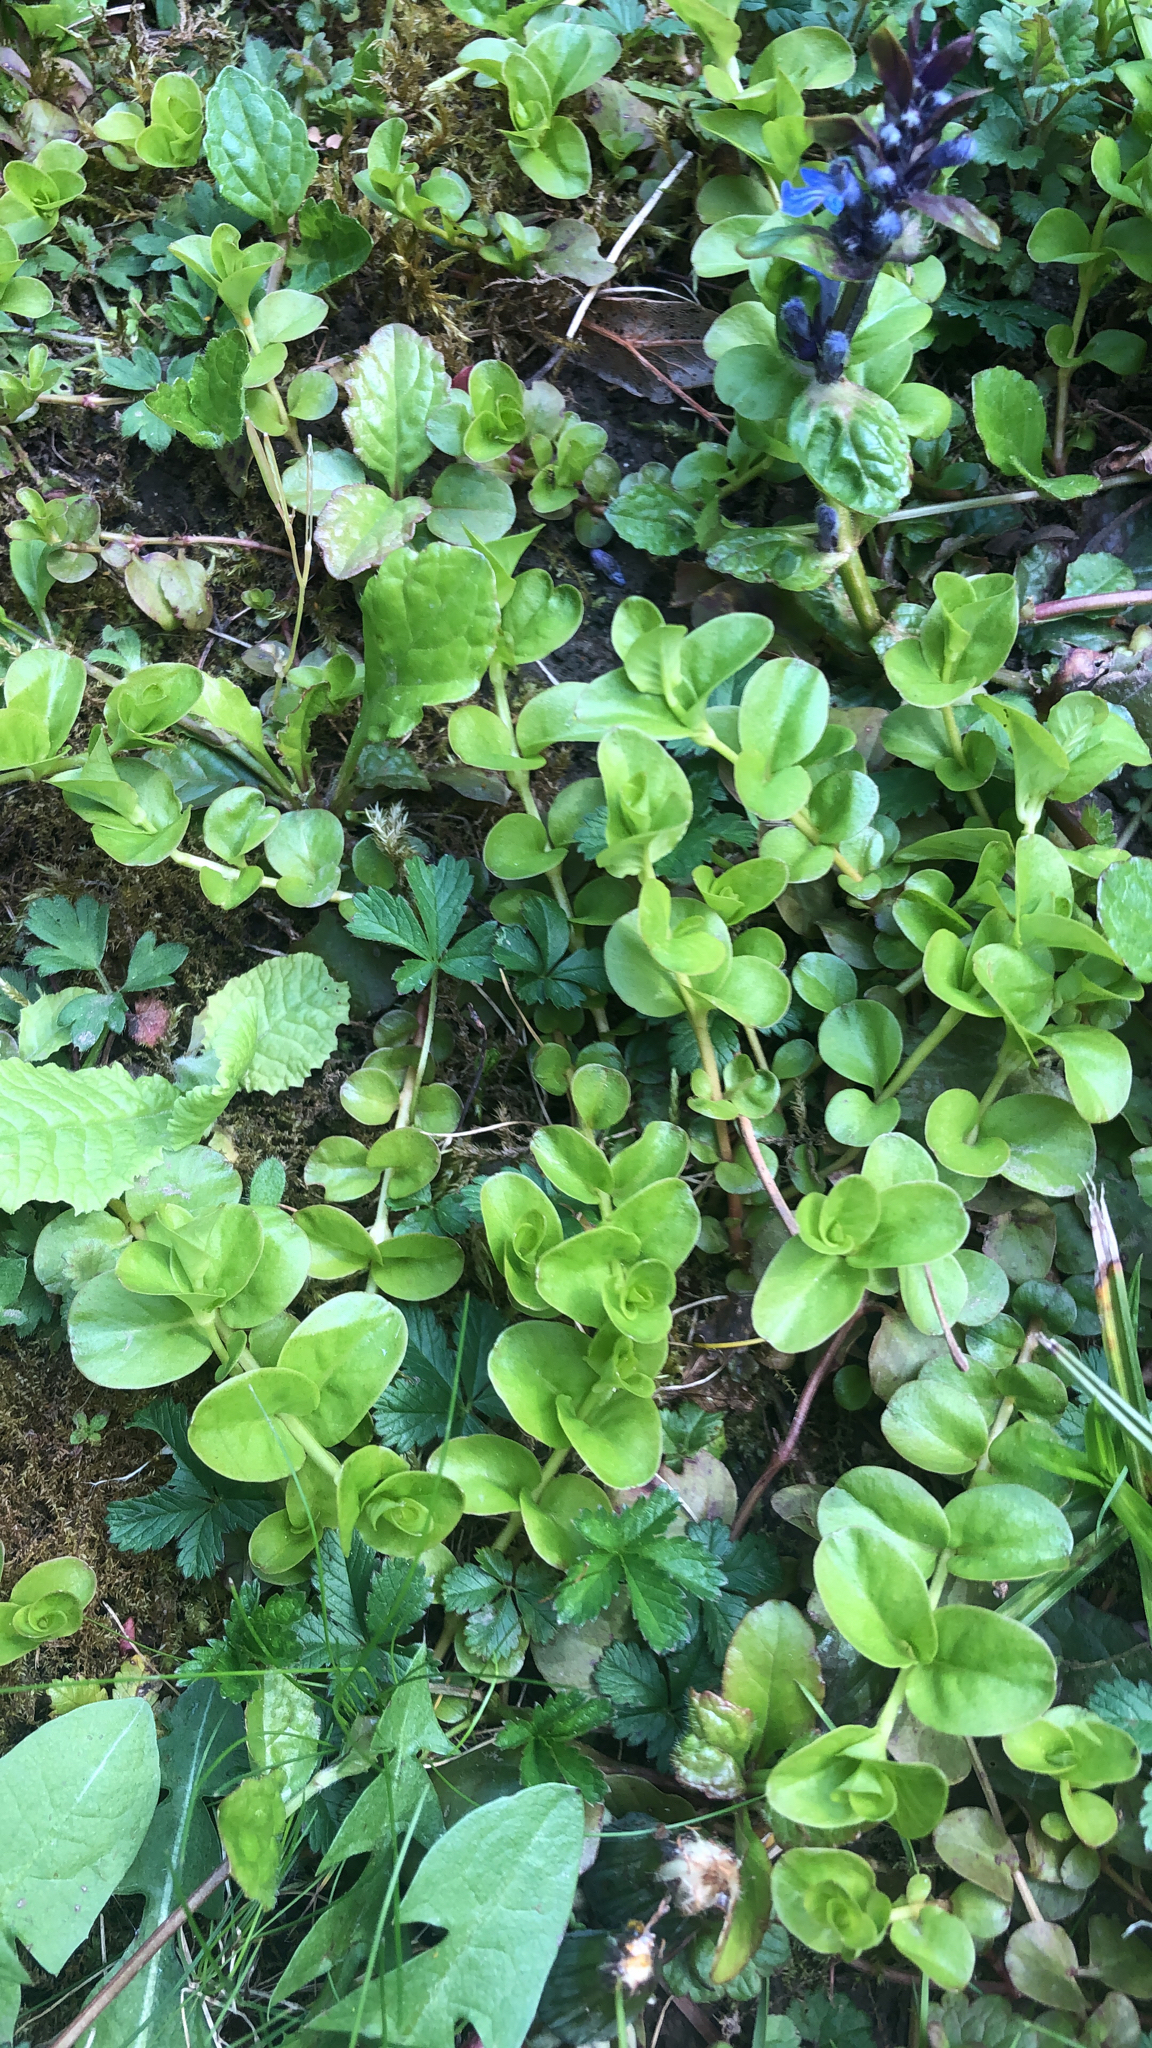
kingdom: Plantae
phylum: Tracheophyta
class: Magnoliopsida
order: Ericales
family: Primulaceae
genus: Lysimachia
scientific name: Lysimachia nummularia
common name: Moneywort
